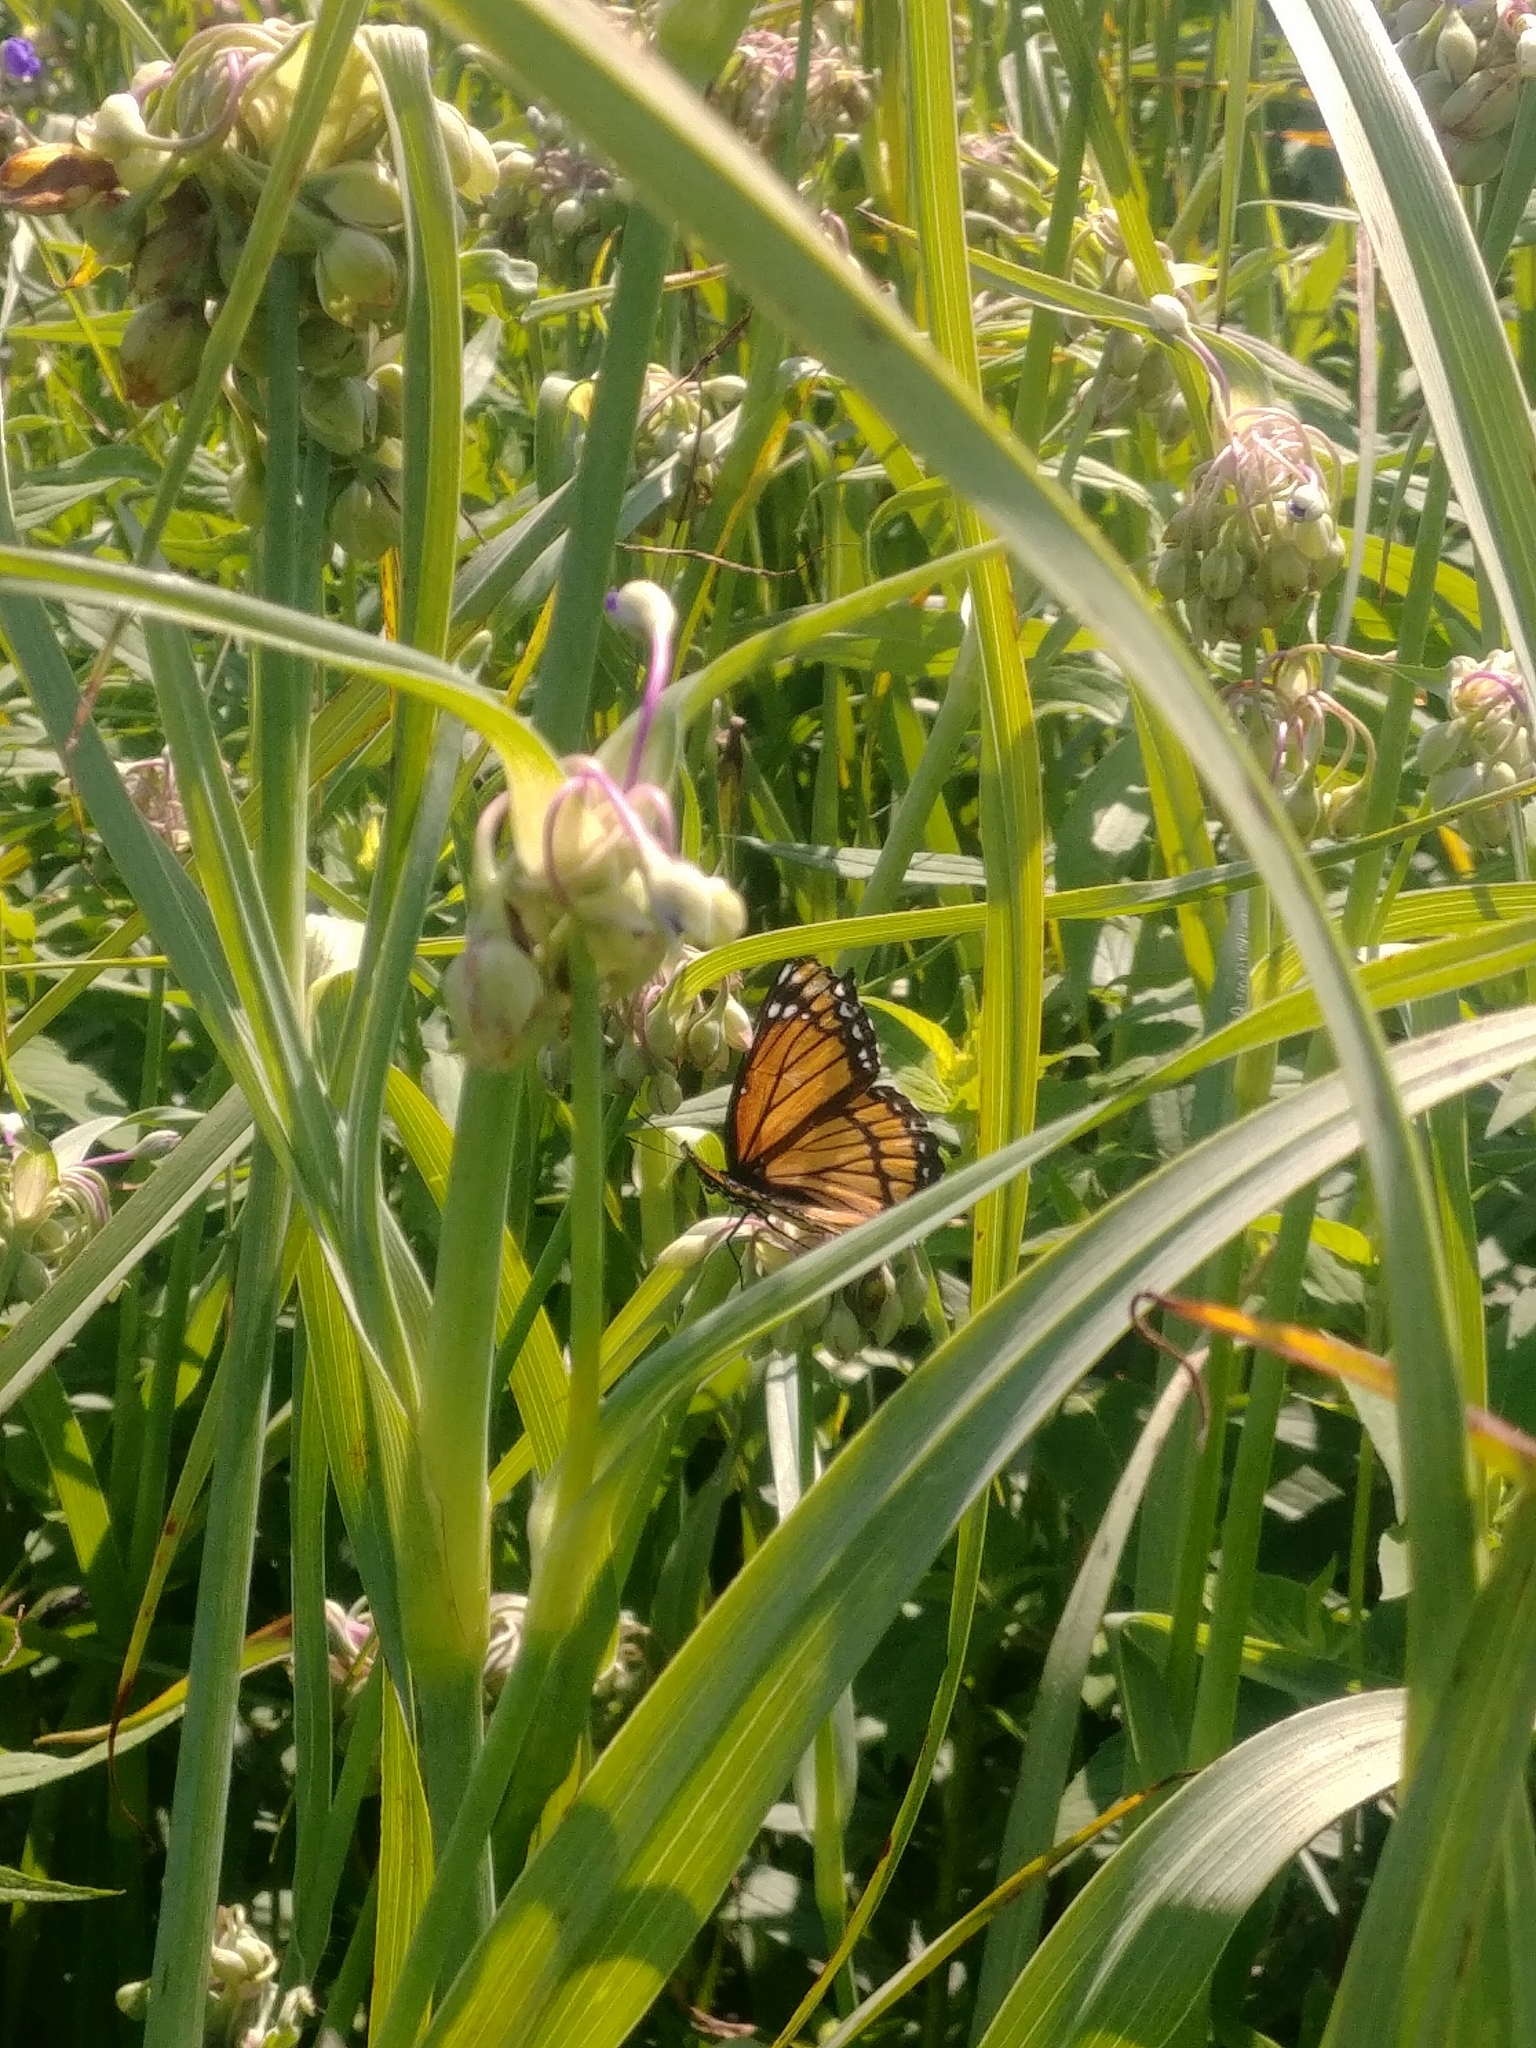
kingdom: Animalia
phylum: Arthropoda
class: Insecta
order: Lepidoptera
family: Nymphalidae
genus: Limenitis
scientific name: Limenitis archippus
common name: Viceroy
